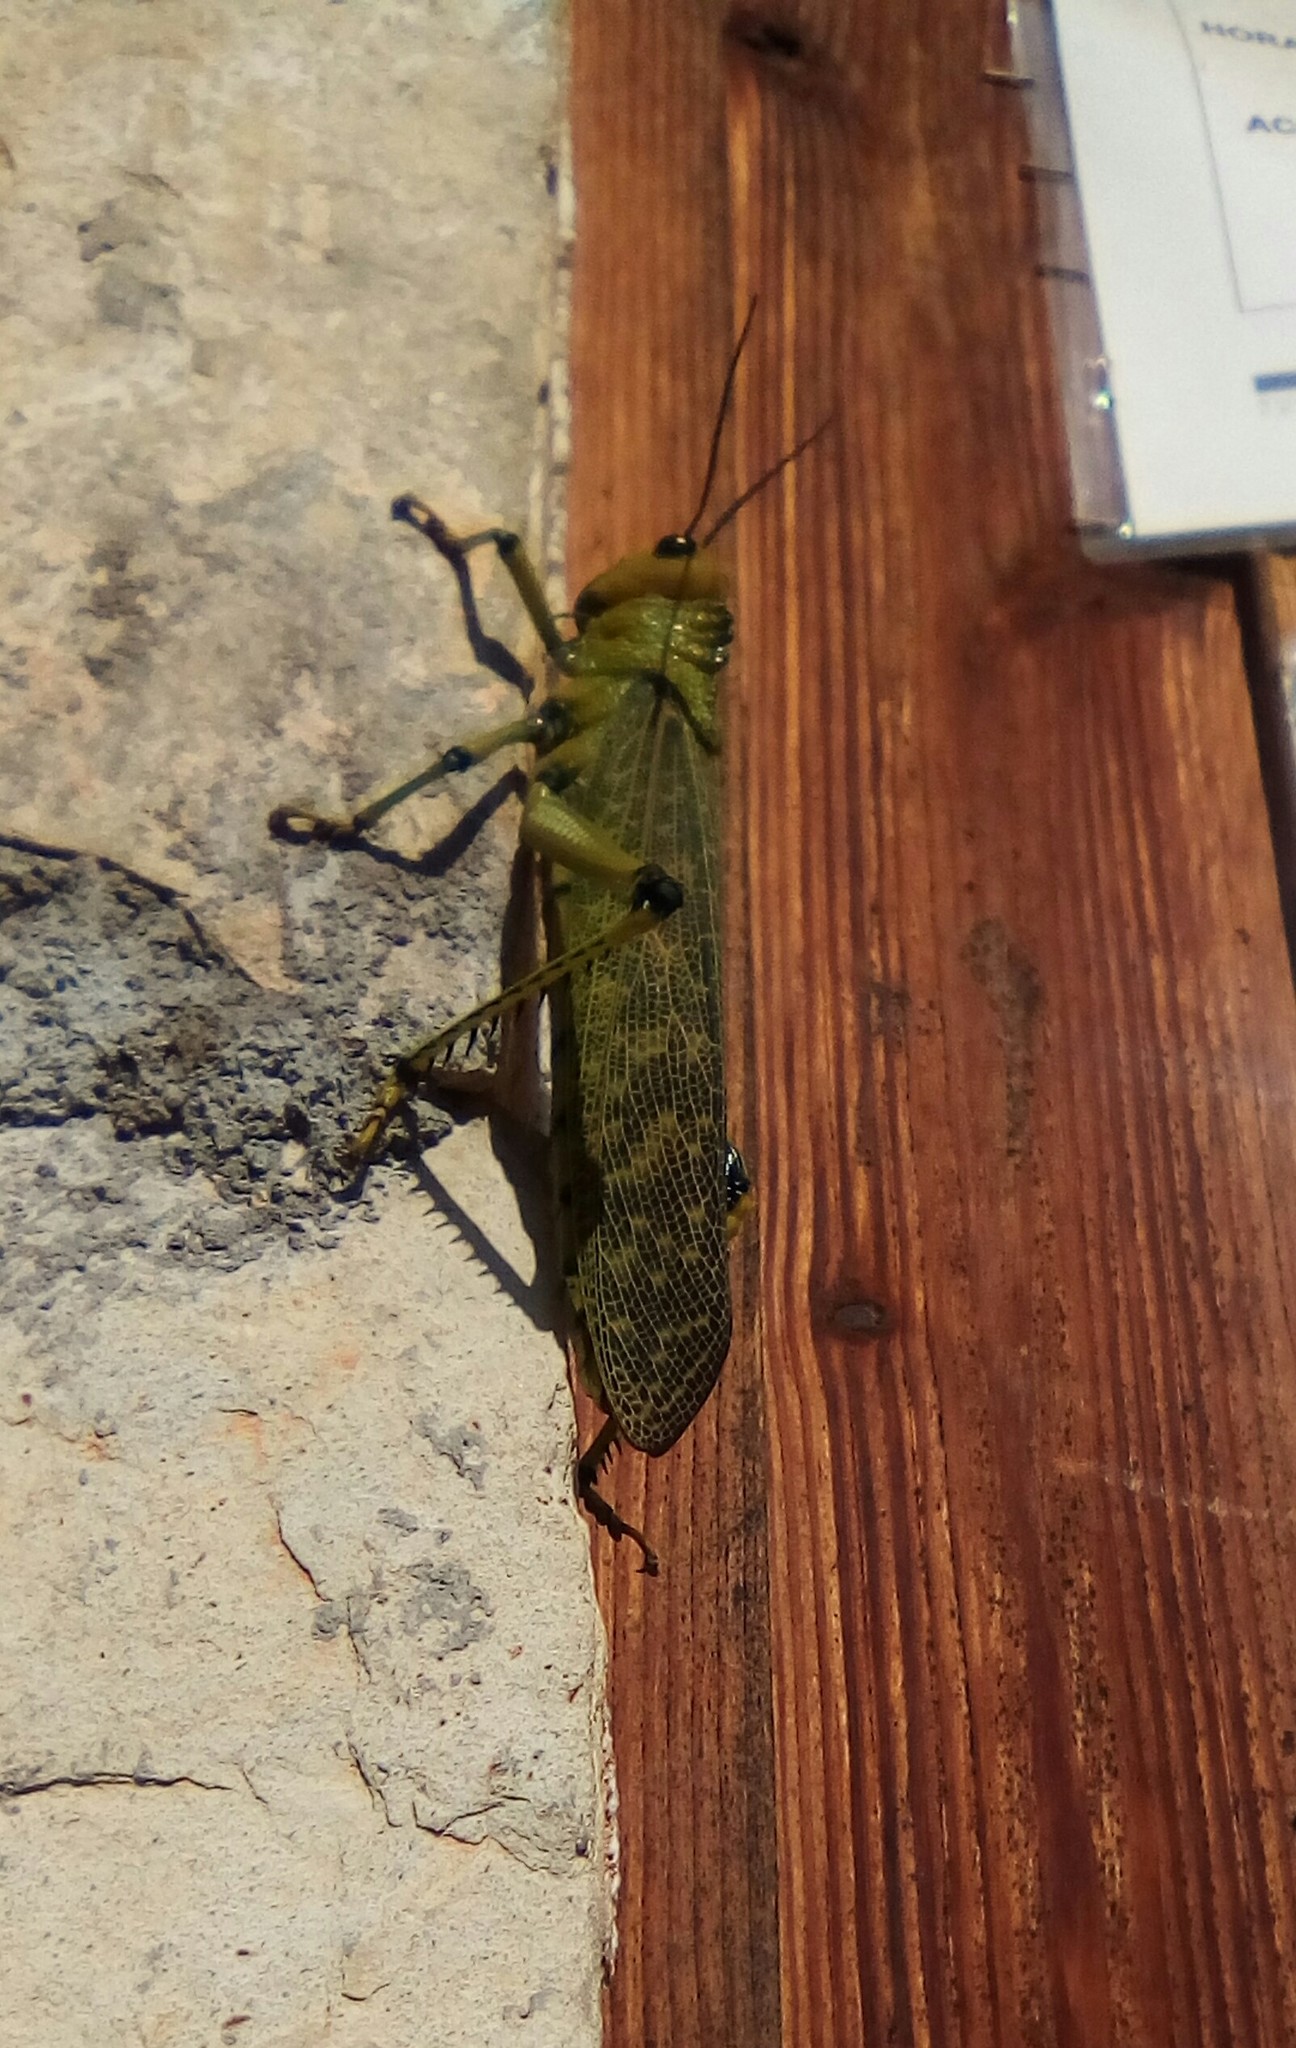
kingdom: Animalia
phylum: Arthropoda
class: Insecta
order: Orthoptera
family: Romaleidae
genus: Tropidacris
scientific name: Tropidacris cristata
